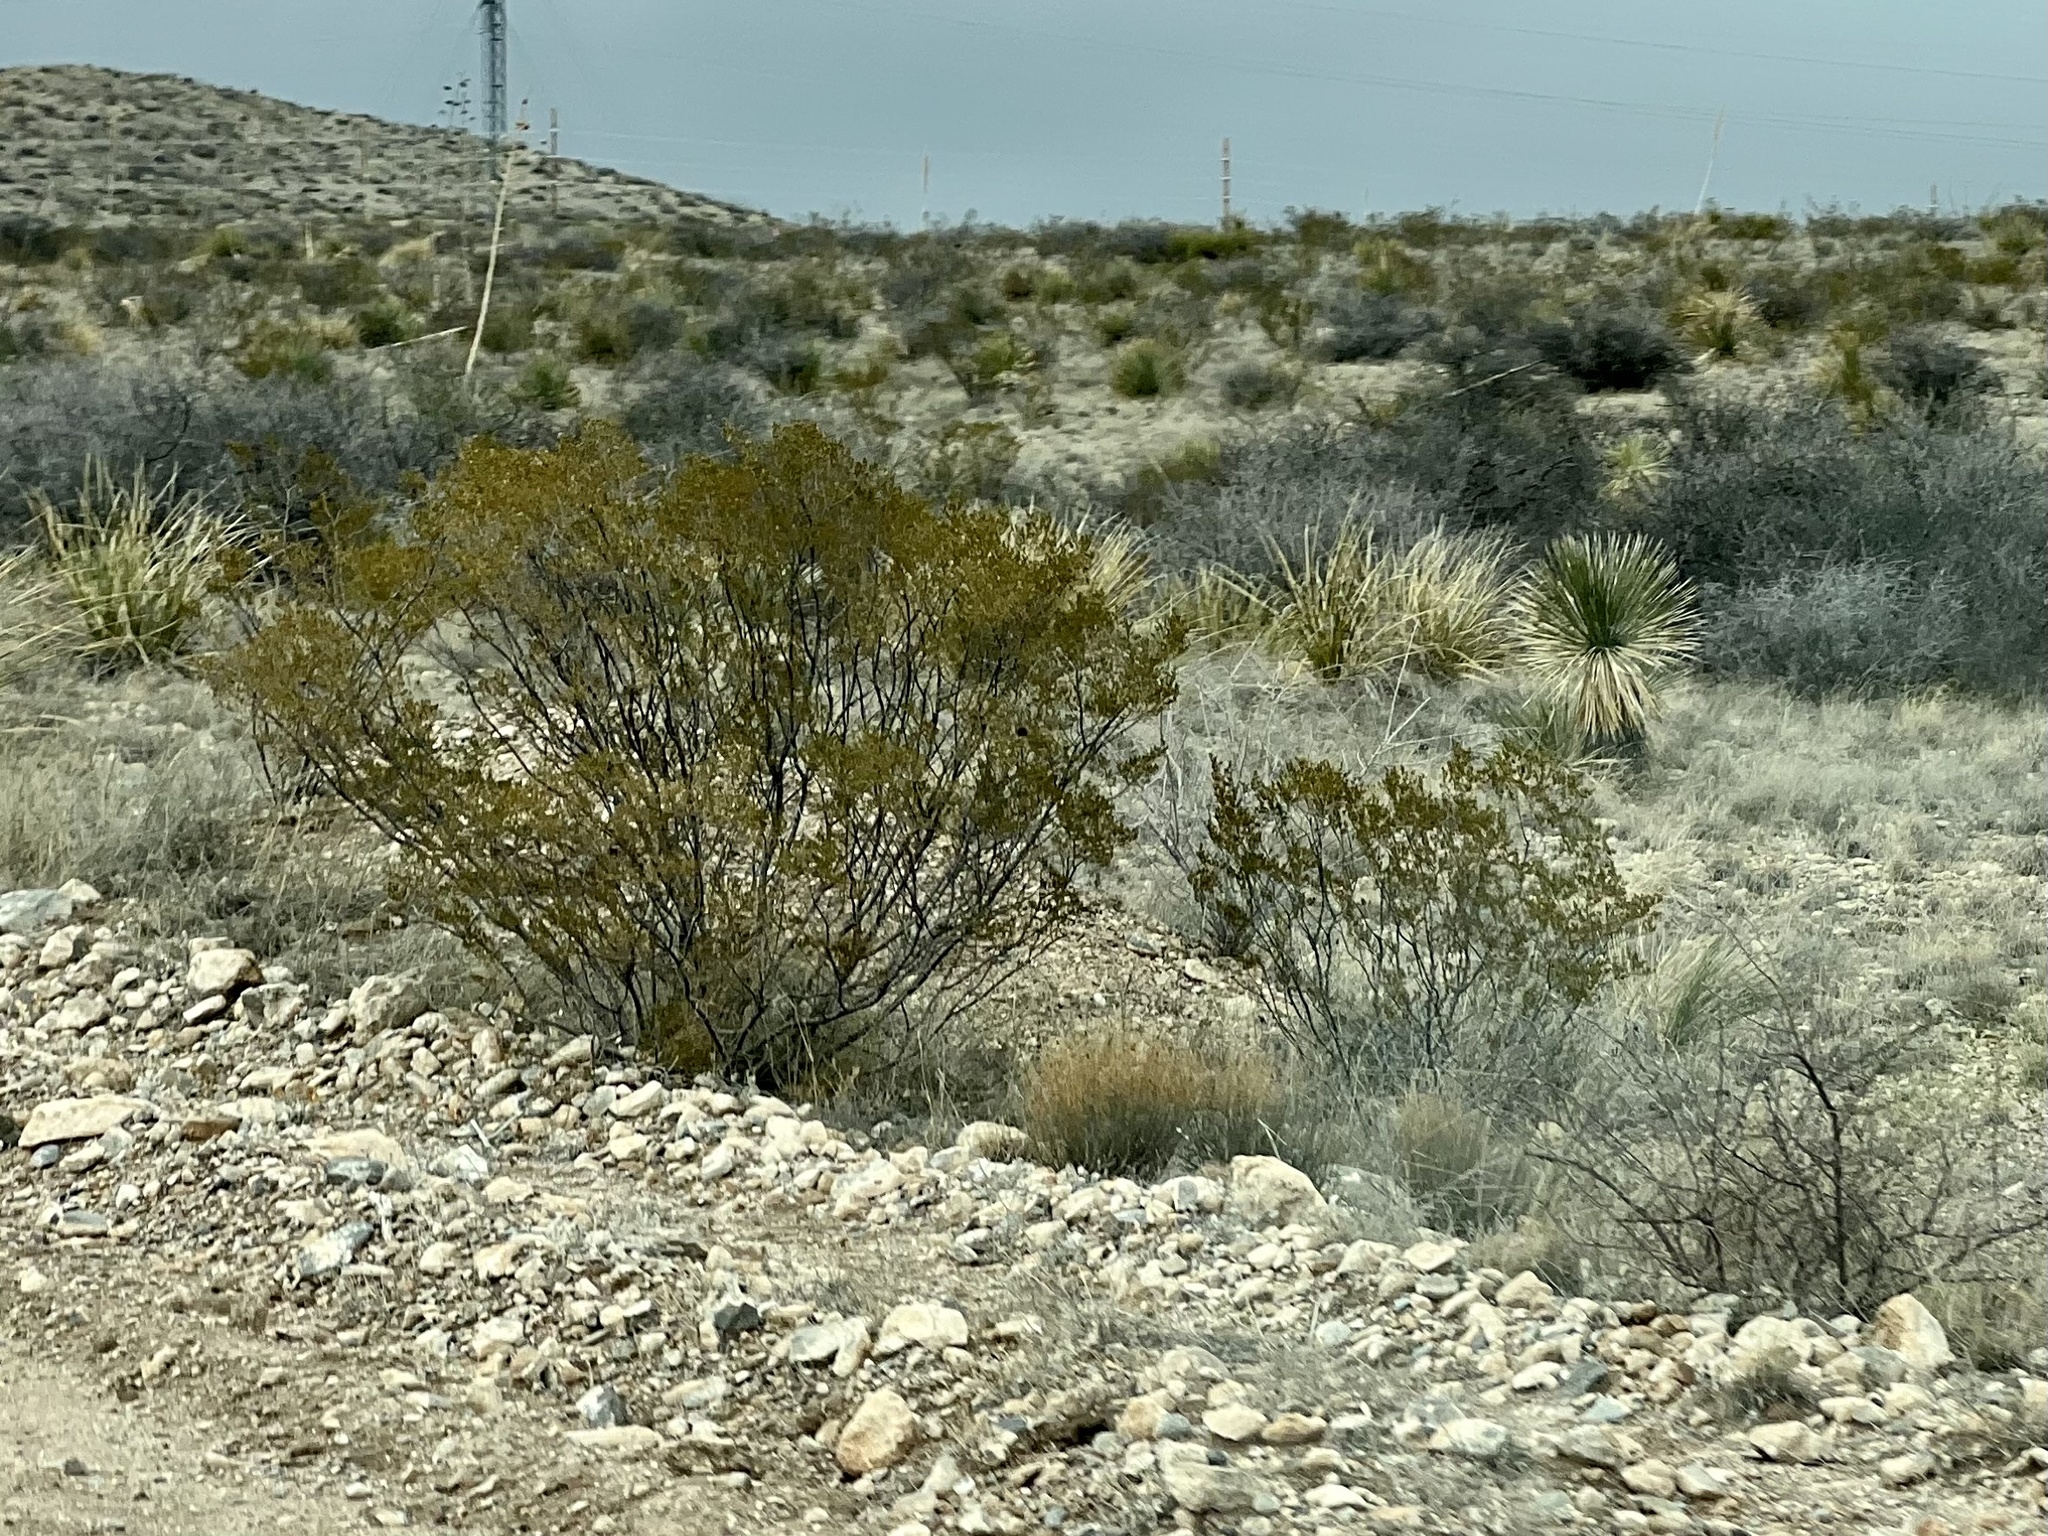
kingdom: Plantae
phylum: Tracheophyta
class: Magnoliopsida
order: Zygophyllales
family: Zygophyllaceae
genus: Larrea
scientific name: Larrea tridentata
